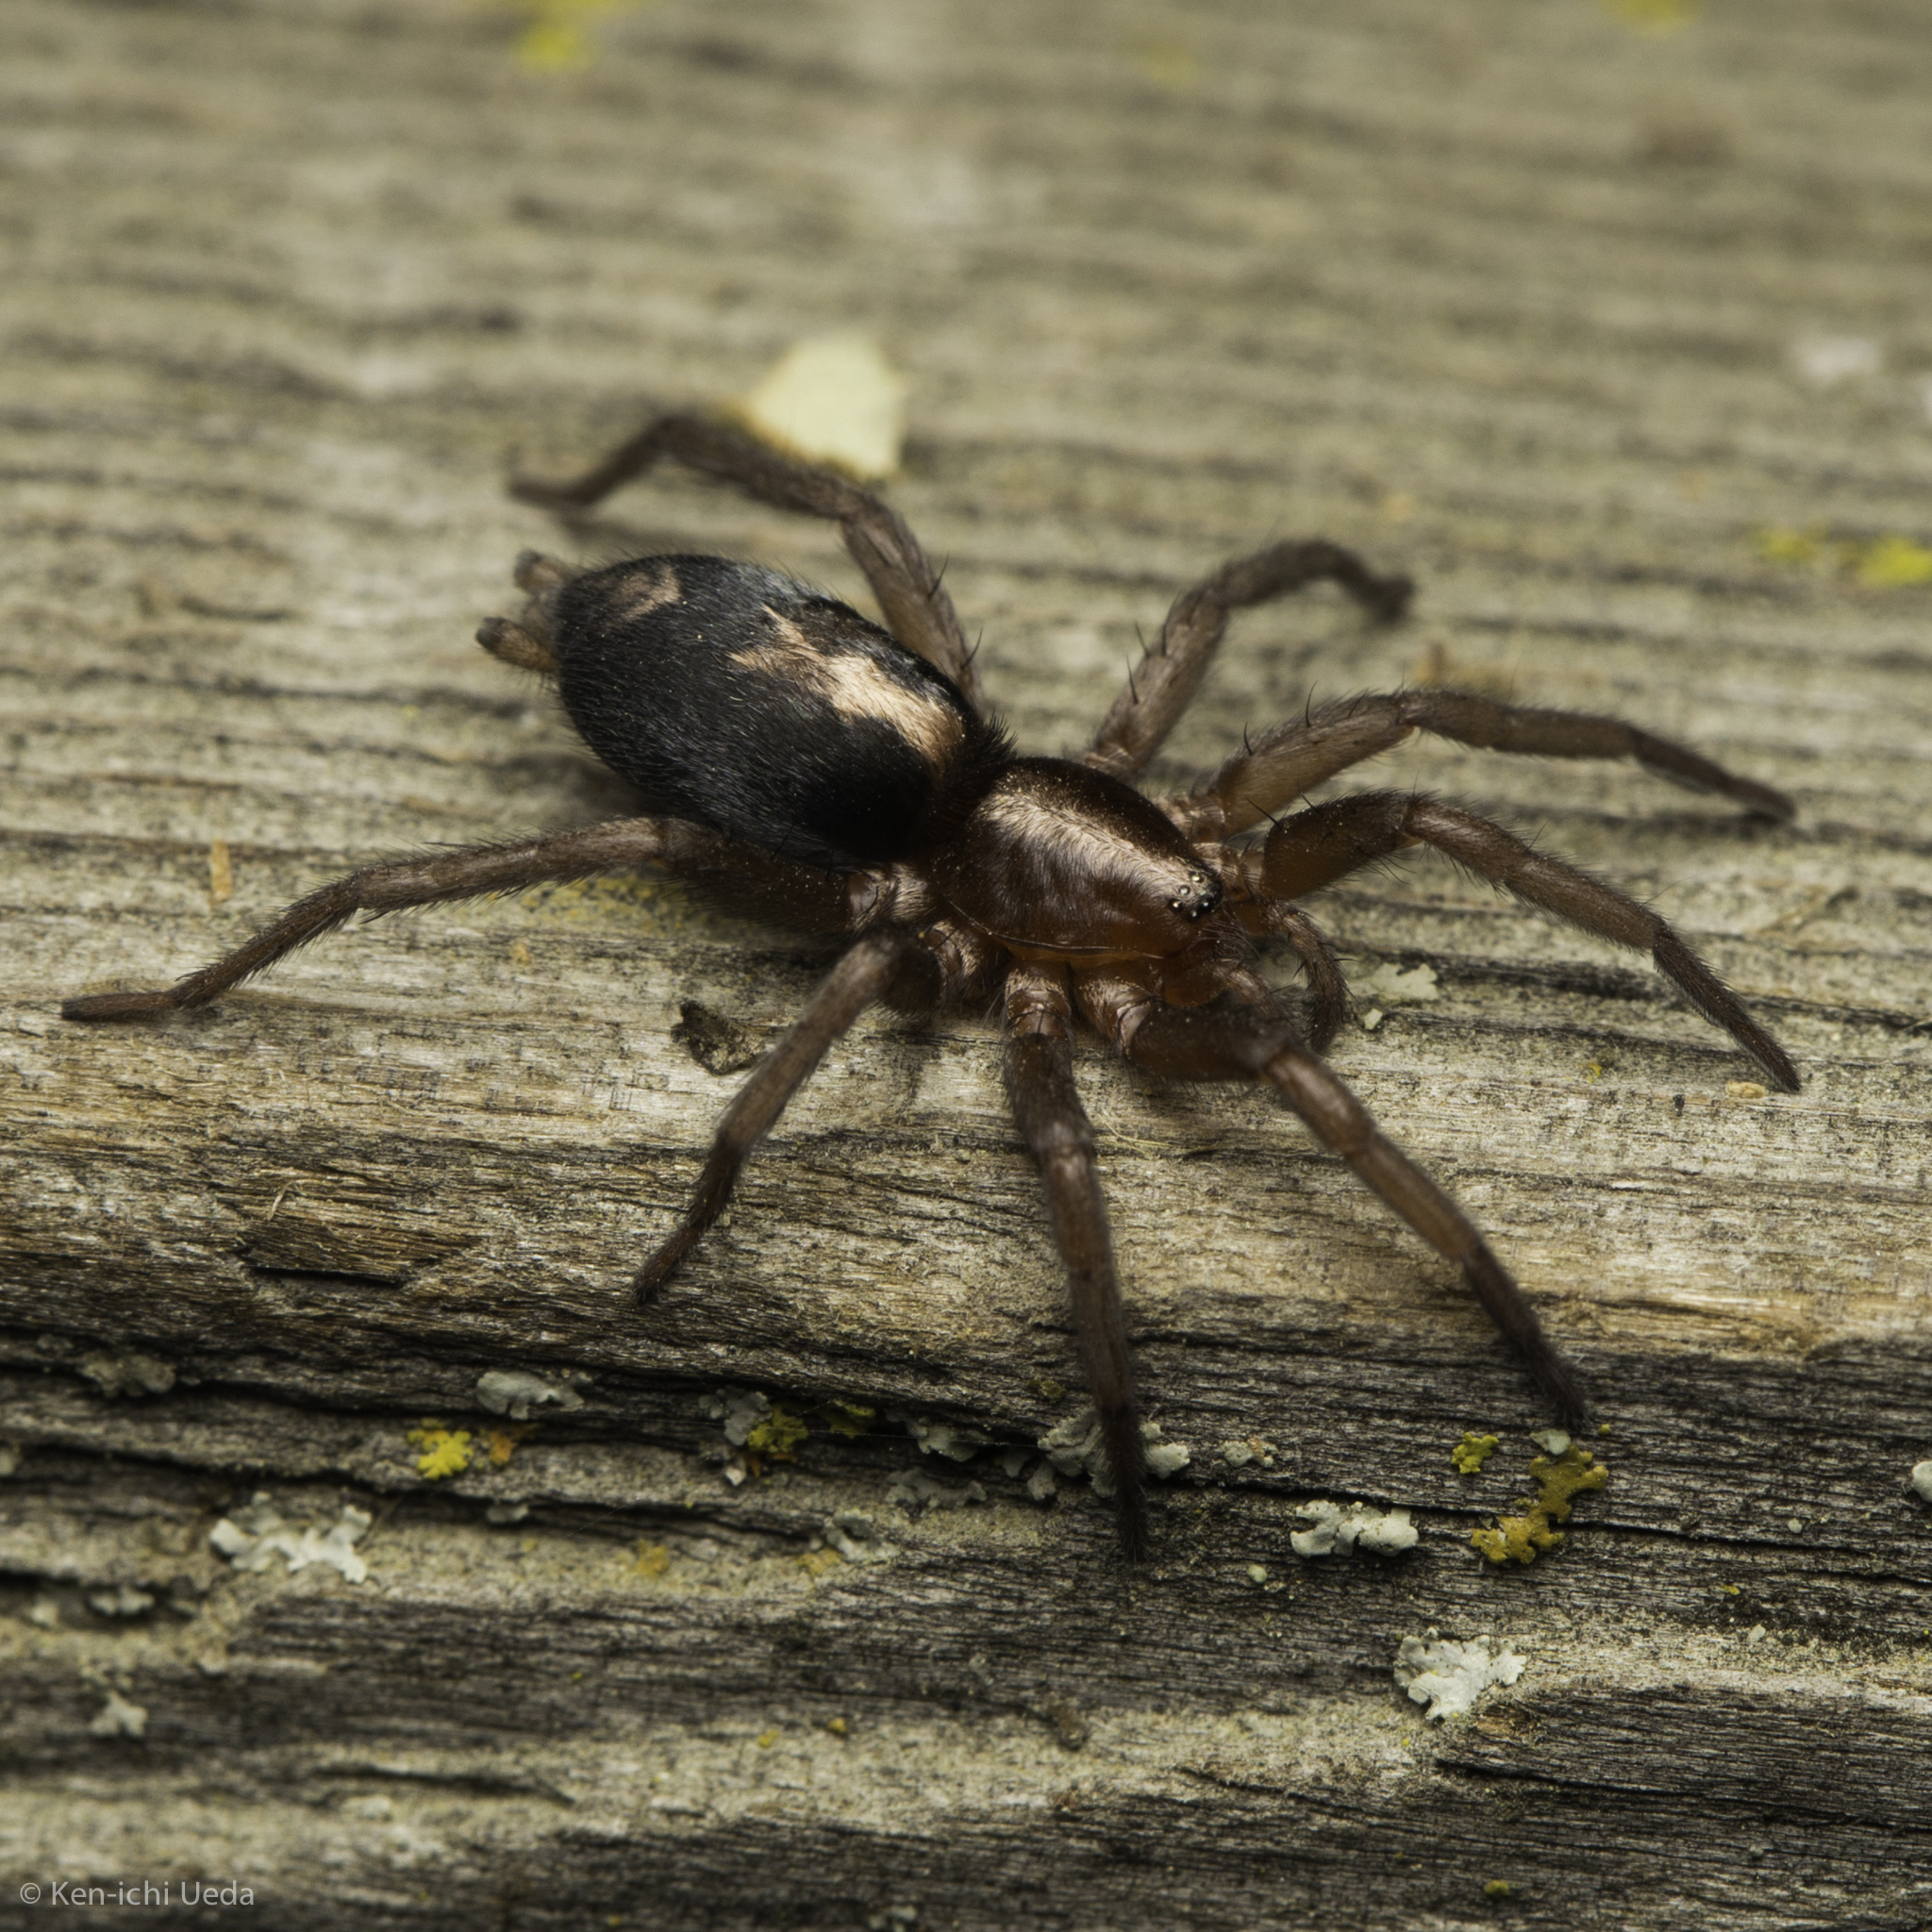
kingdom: Animalia
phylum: Arthropoda
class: Arachnida
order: Araneae
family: Gnaphosidae
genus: Herpyllus
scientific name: Herpyllus propinquus
